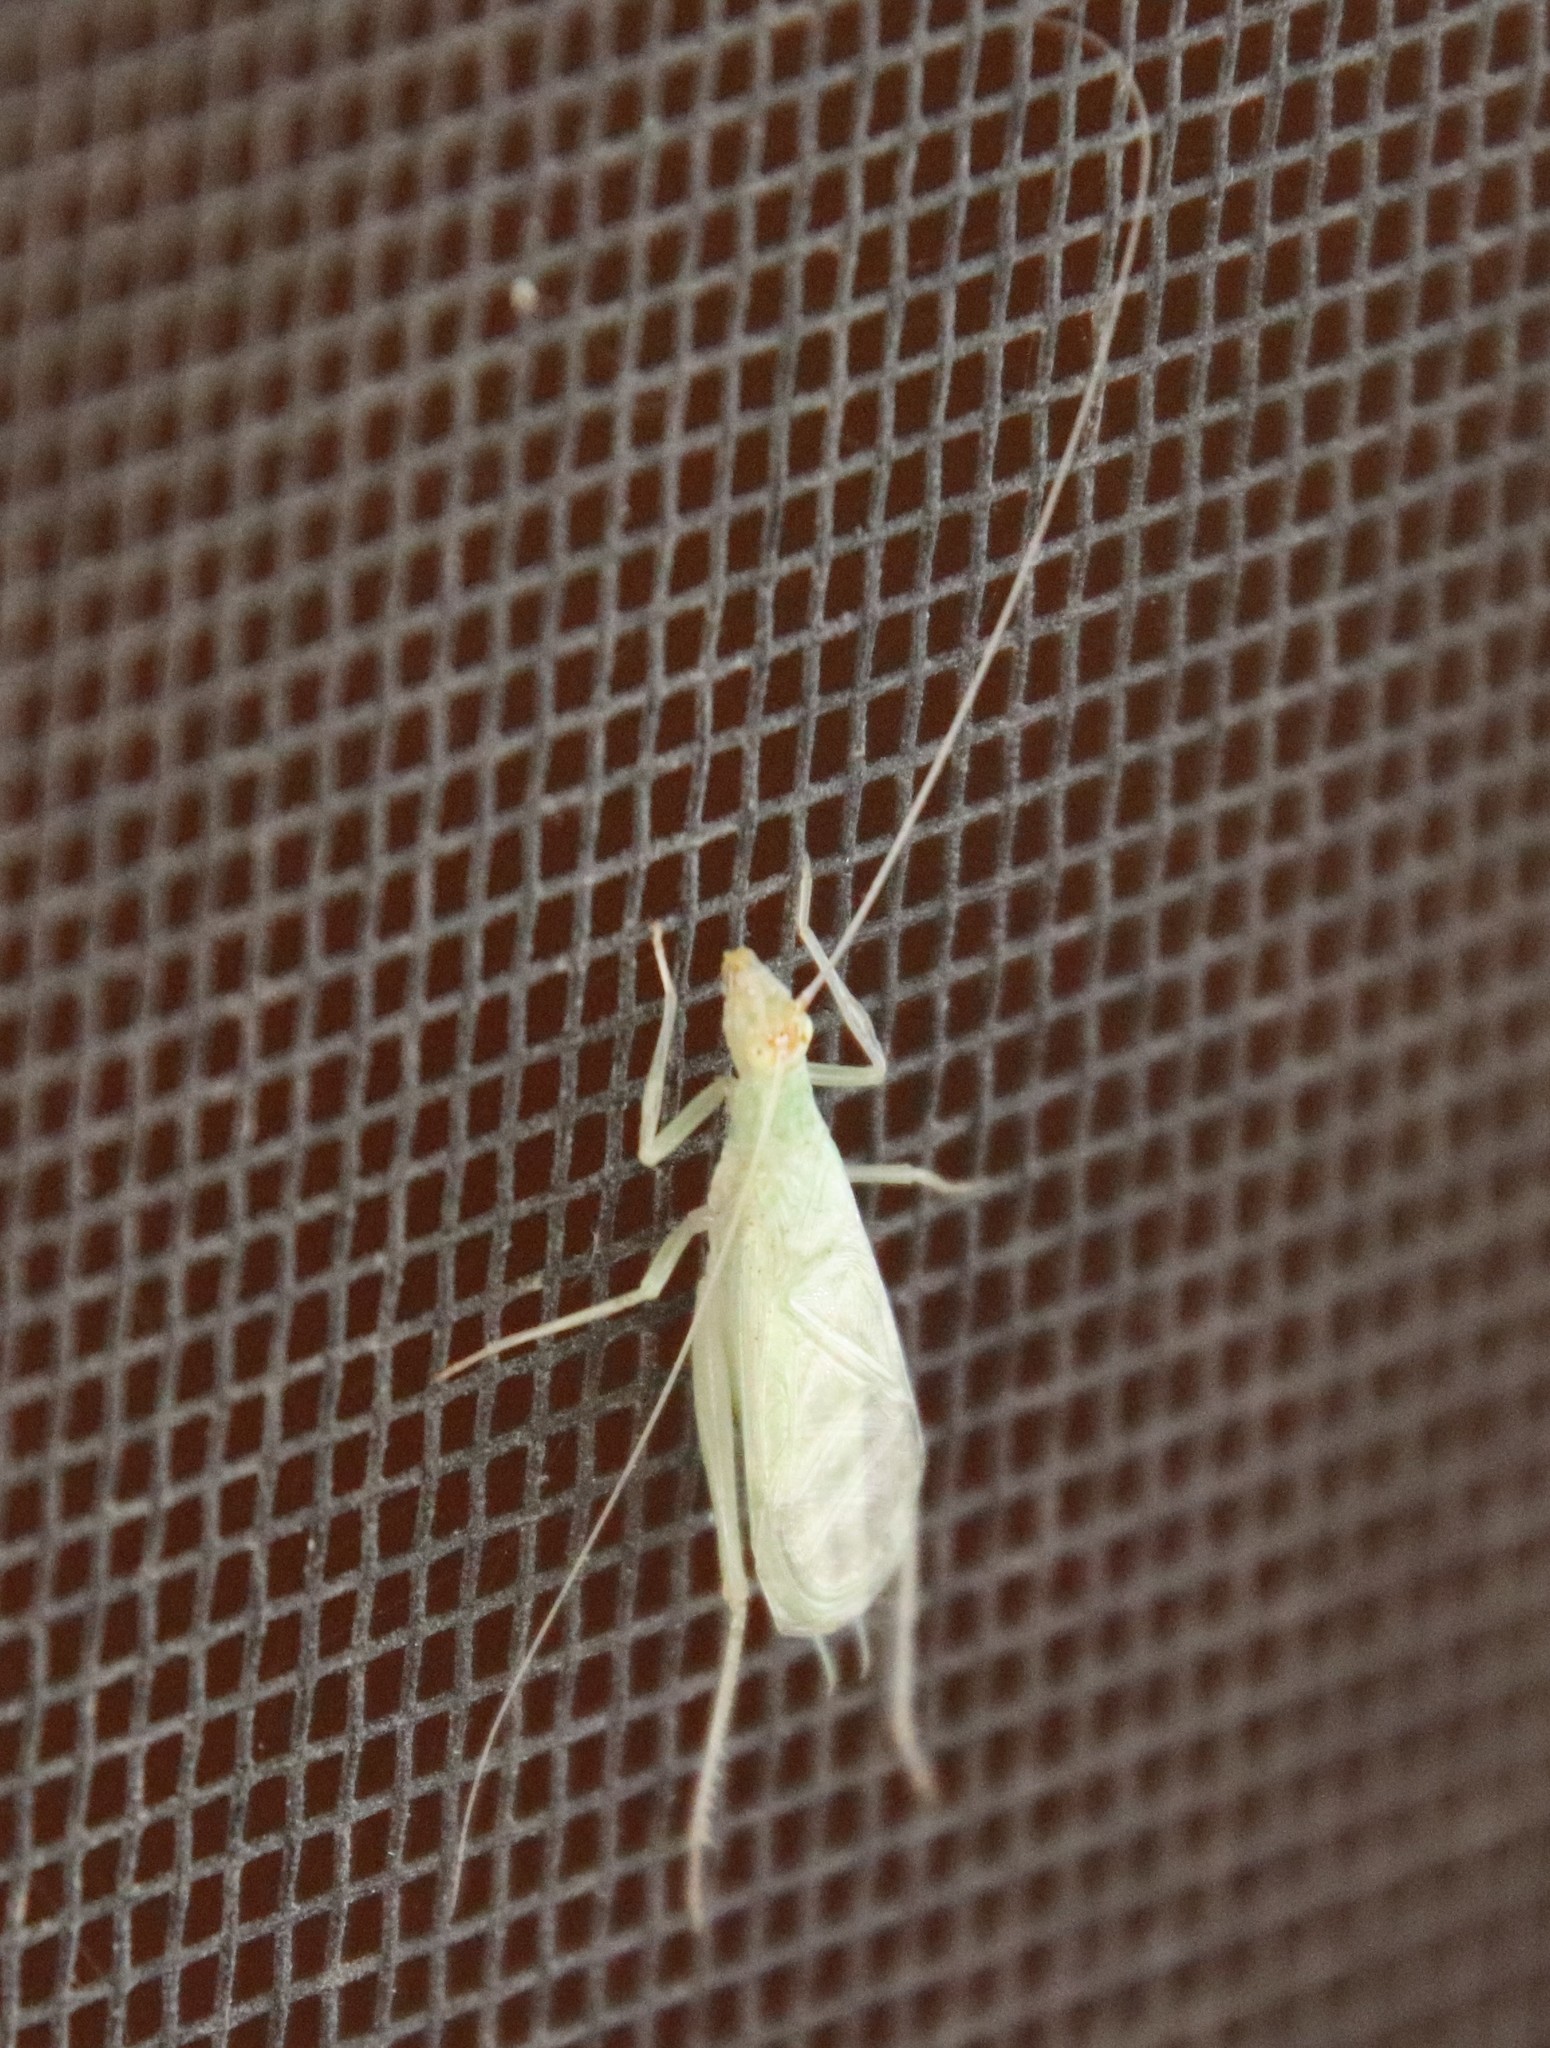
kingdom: Animalia
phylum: Arthropoda
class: Insecta
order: Orthoptera
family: Gryllidae
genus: Oecanthus
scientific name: Oecanthus
